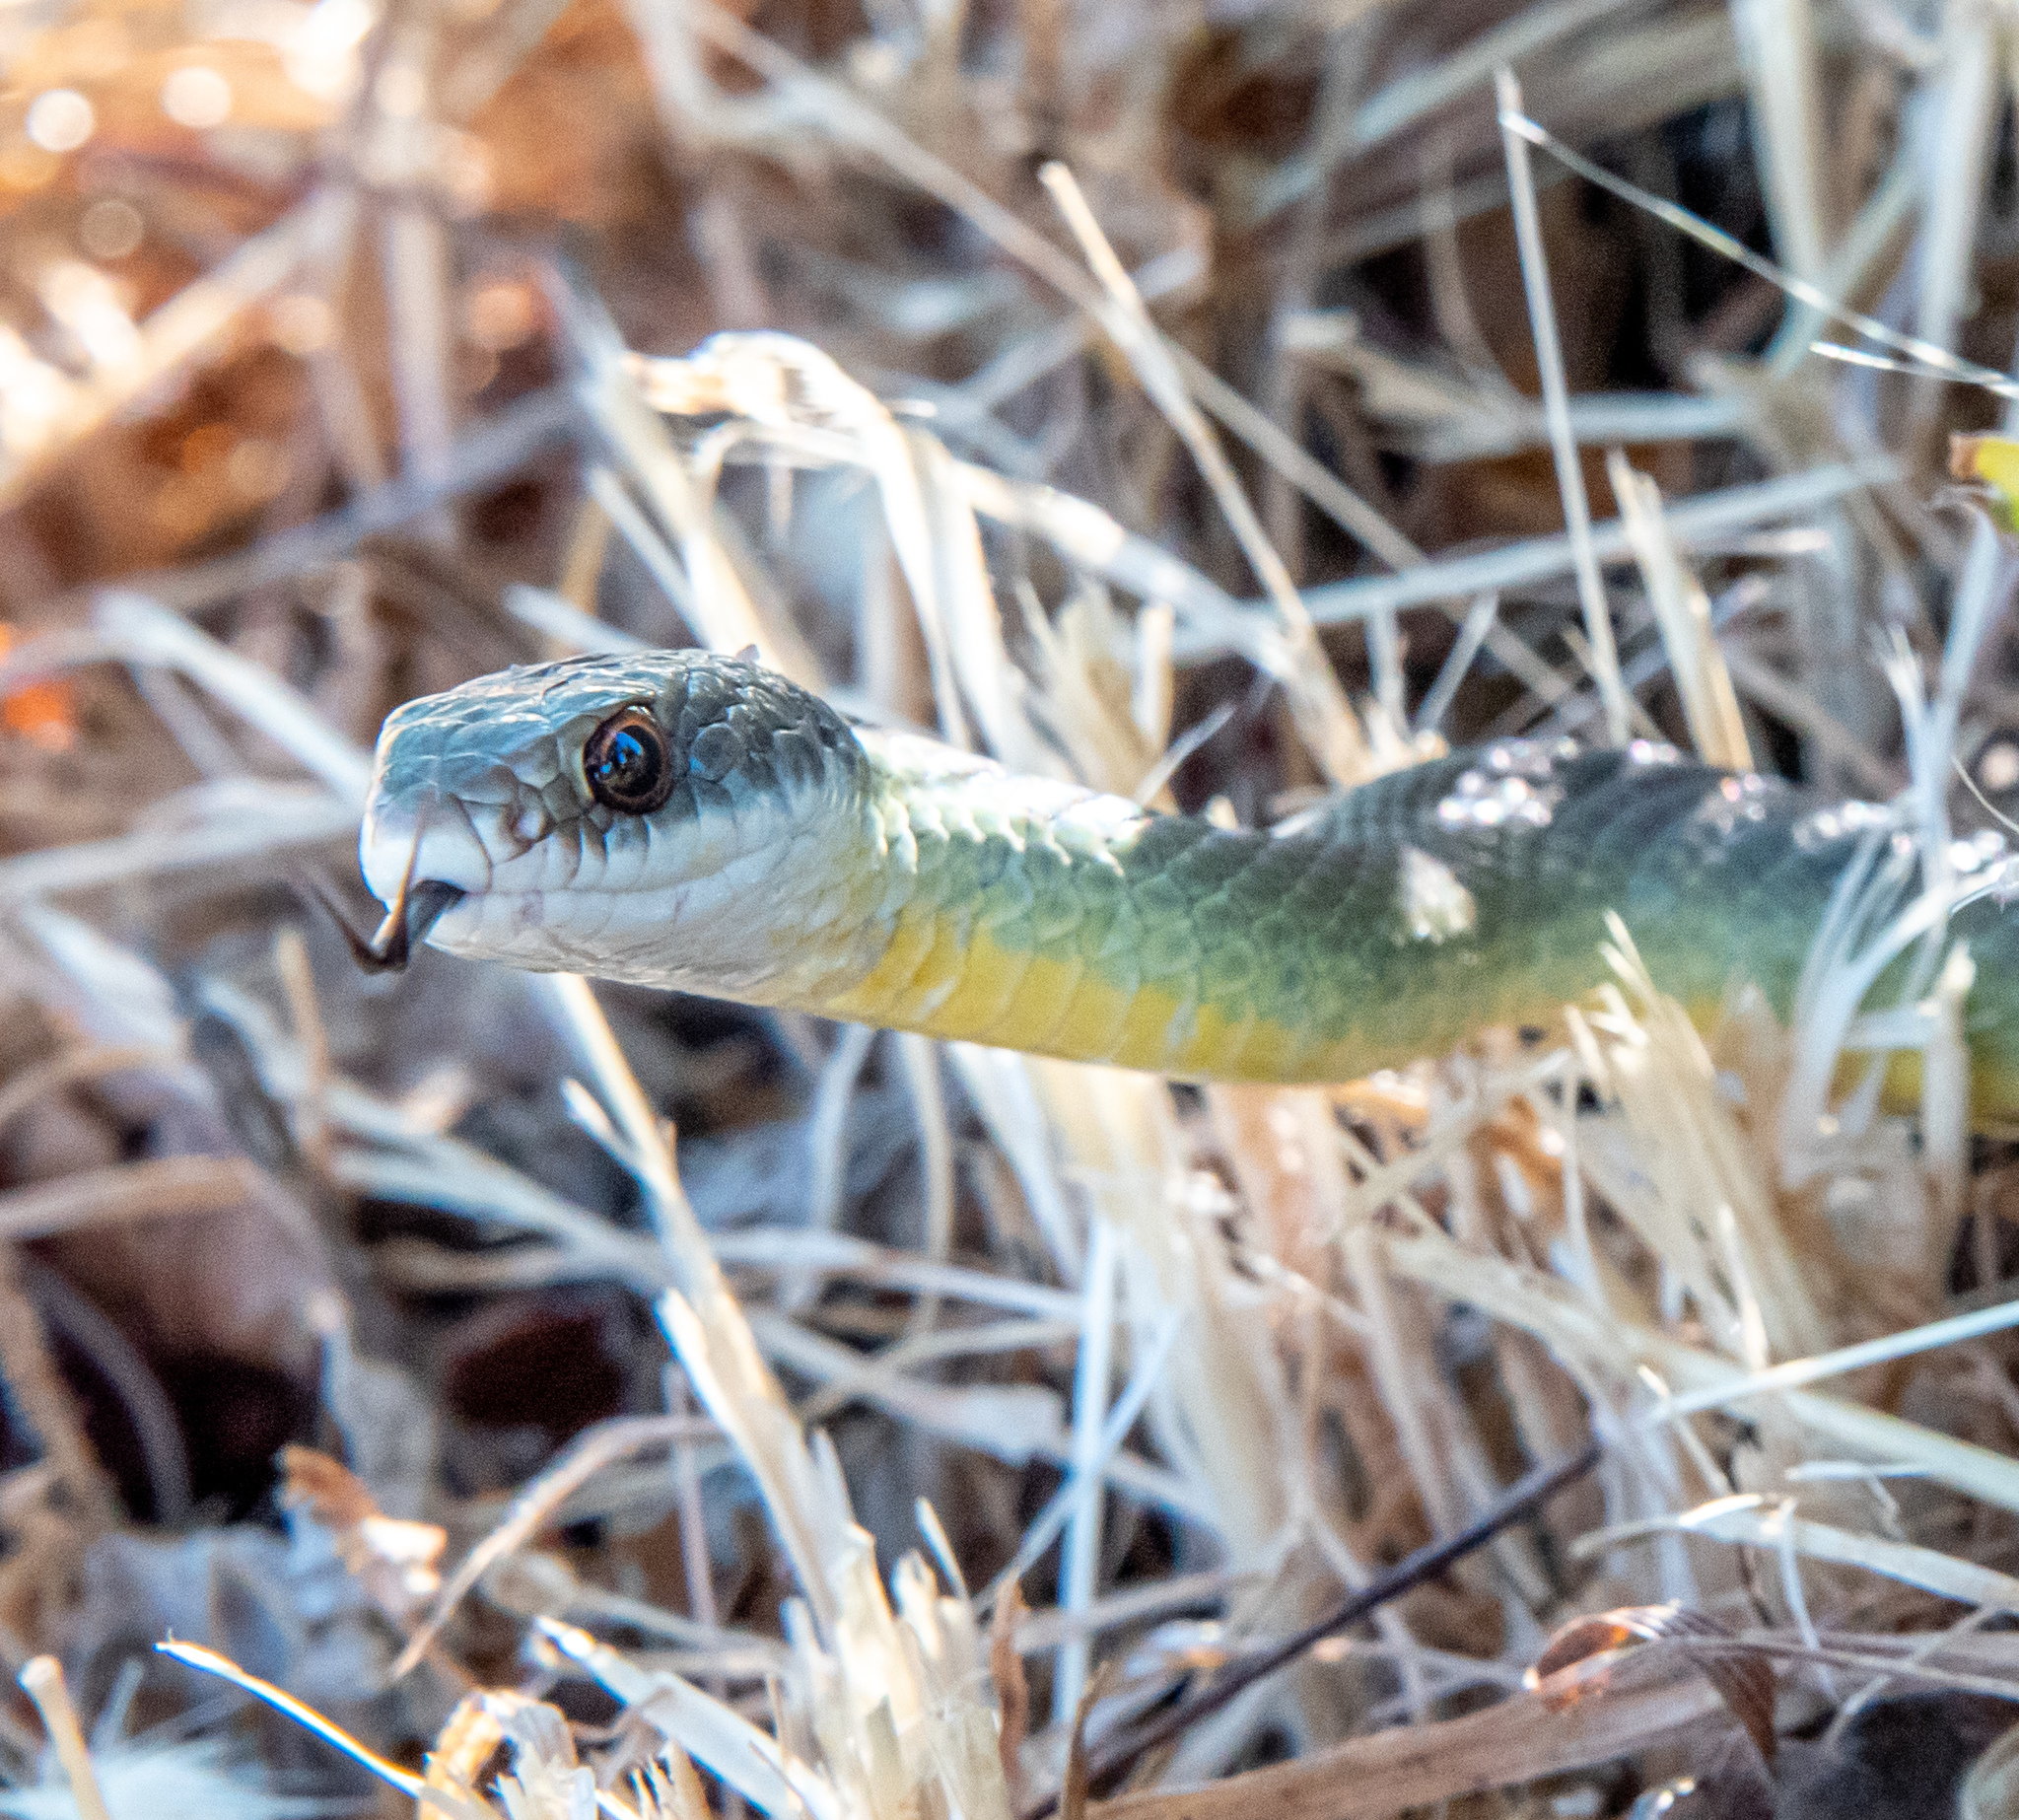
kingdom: Animalia
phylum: Chordata
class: Squamata
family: Colubridae
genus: Coluber
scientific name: Coluber constrictor
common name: Eastern racer
